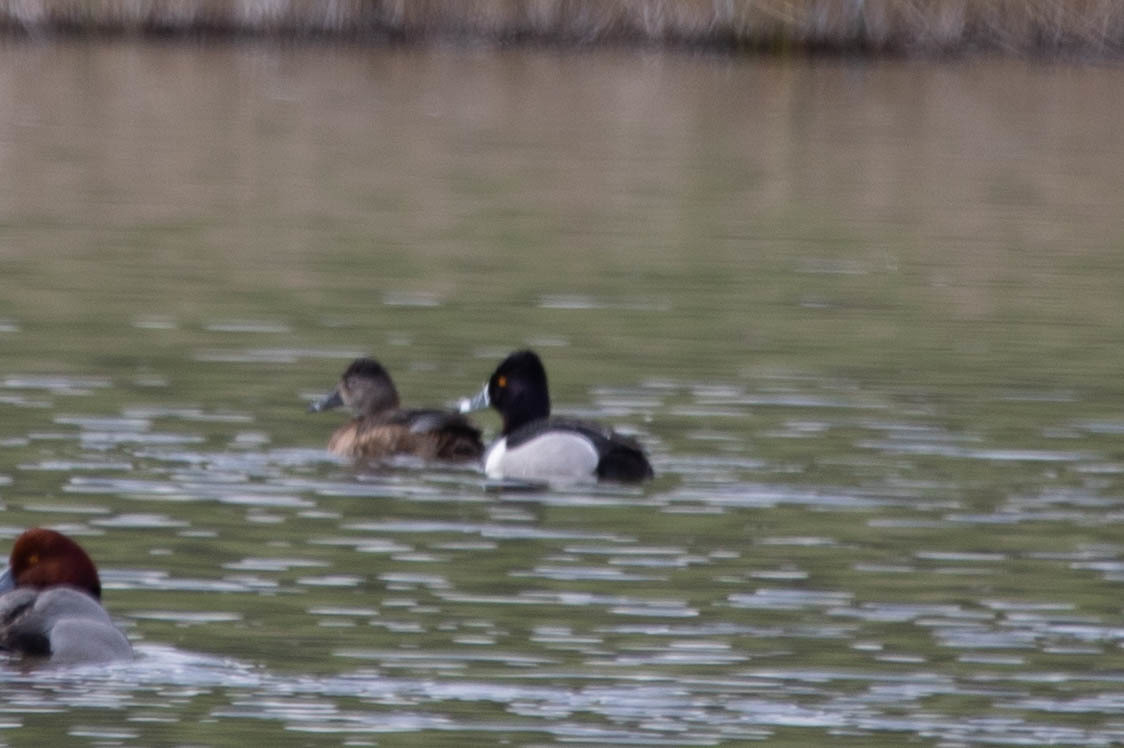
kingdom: Animalia
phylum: Chordata
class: Aves
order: Anseriformes
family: Anatidae
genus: Aythya
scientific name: Aythya collaris
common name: Ring-necked duck
